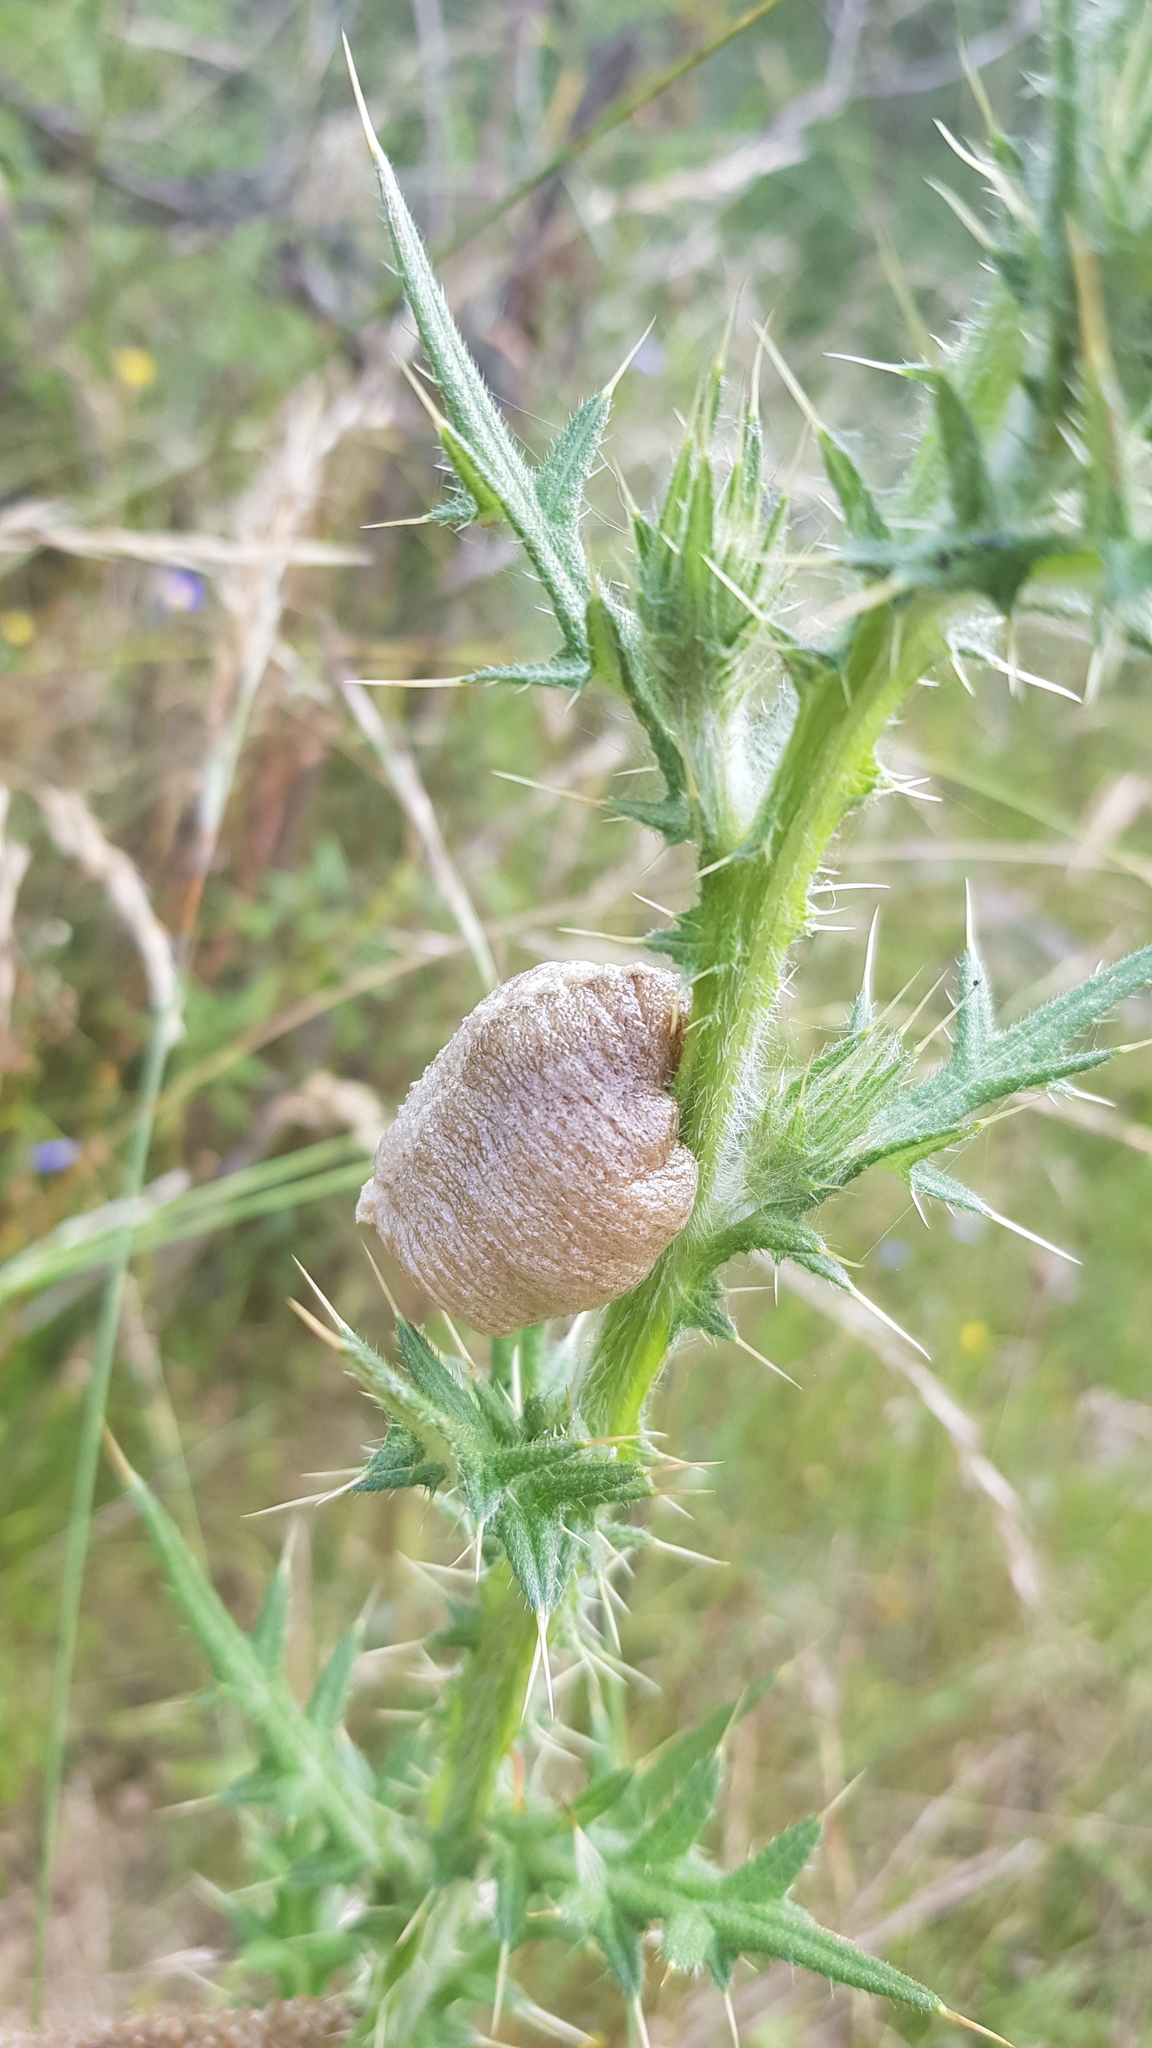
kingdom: Animalia
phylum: Arthropoda
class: Insecta
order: Mantodea
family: Mantidae
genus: Archimantis
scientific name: Archimantis latistyla
